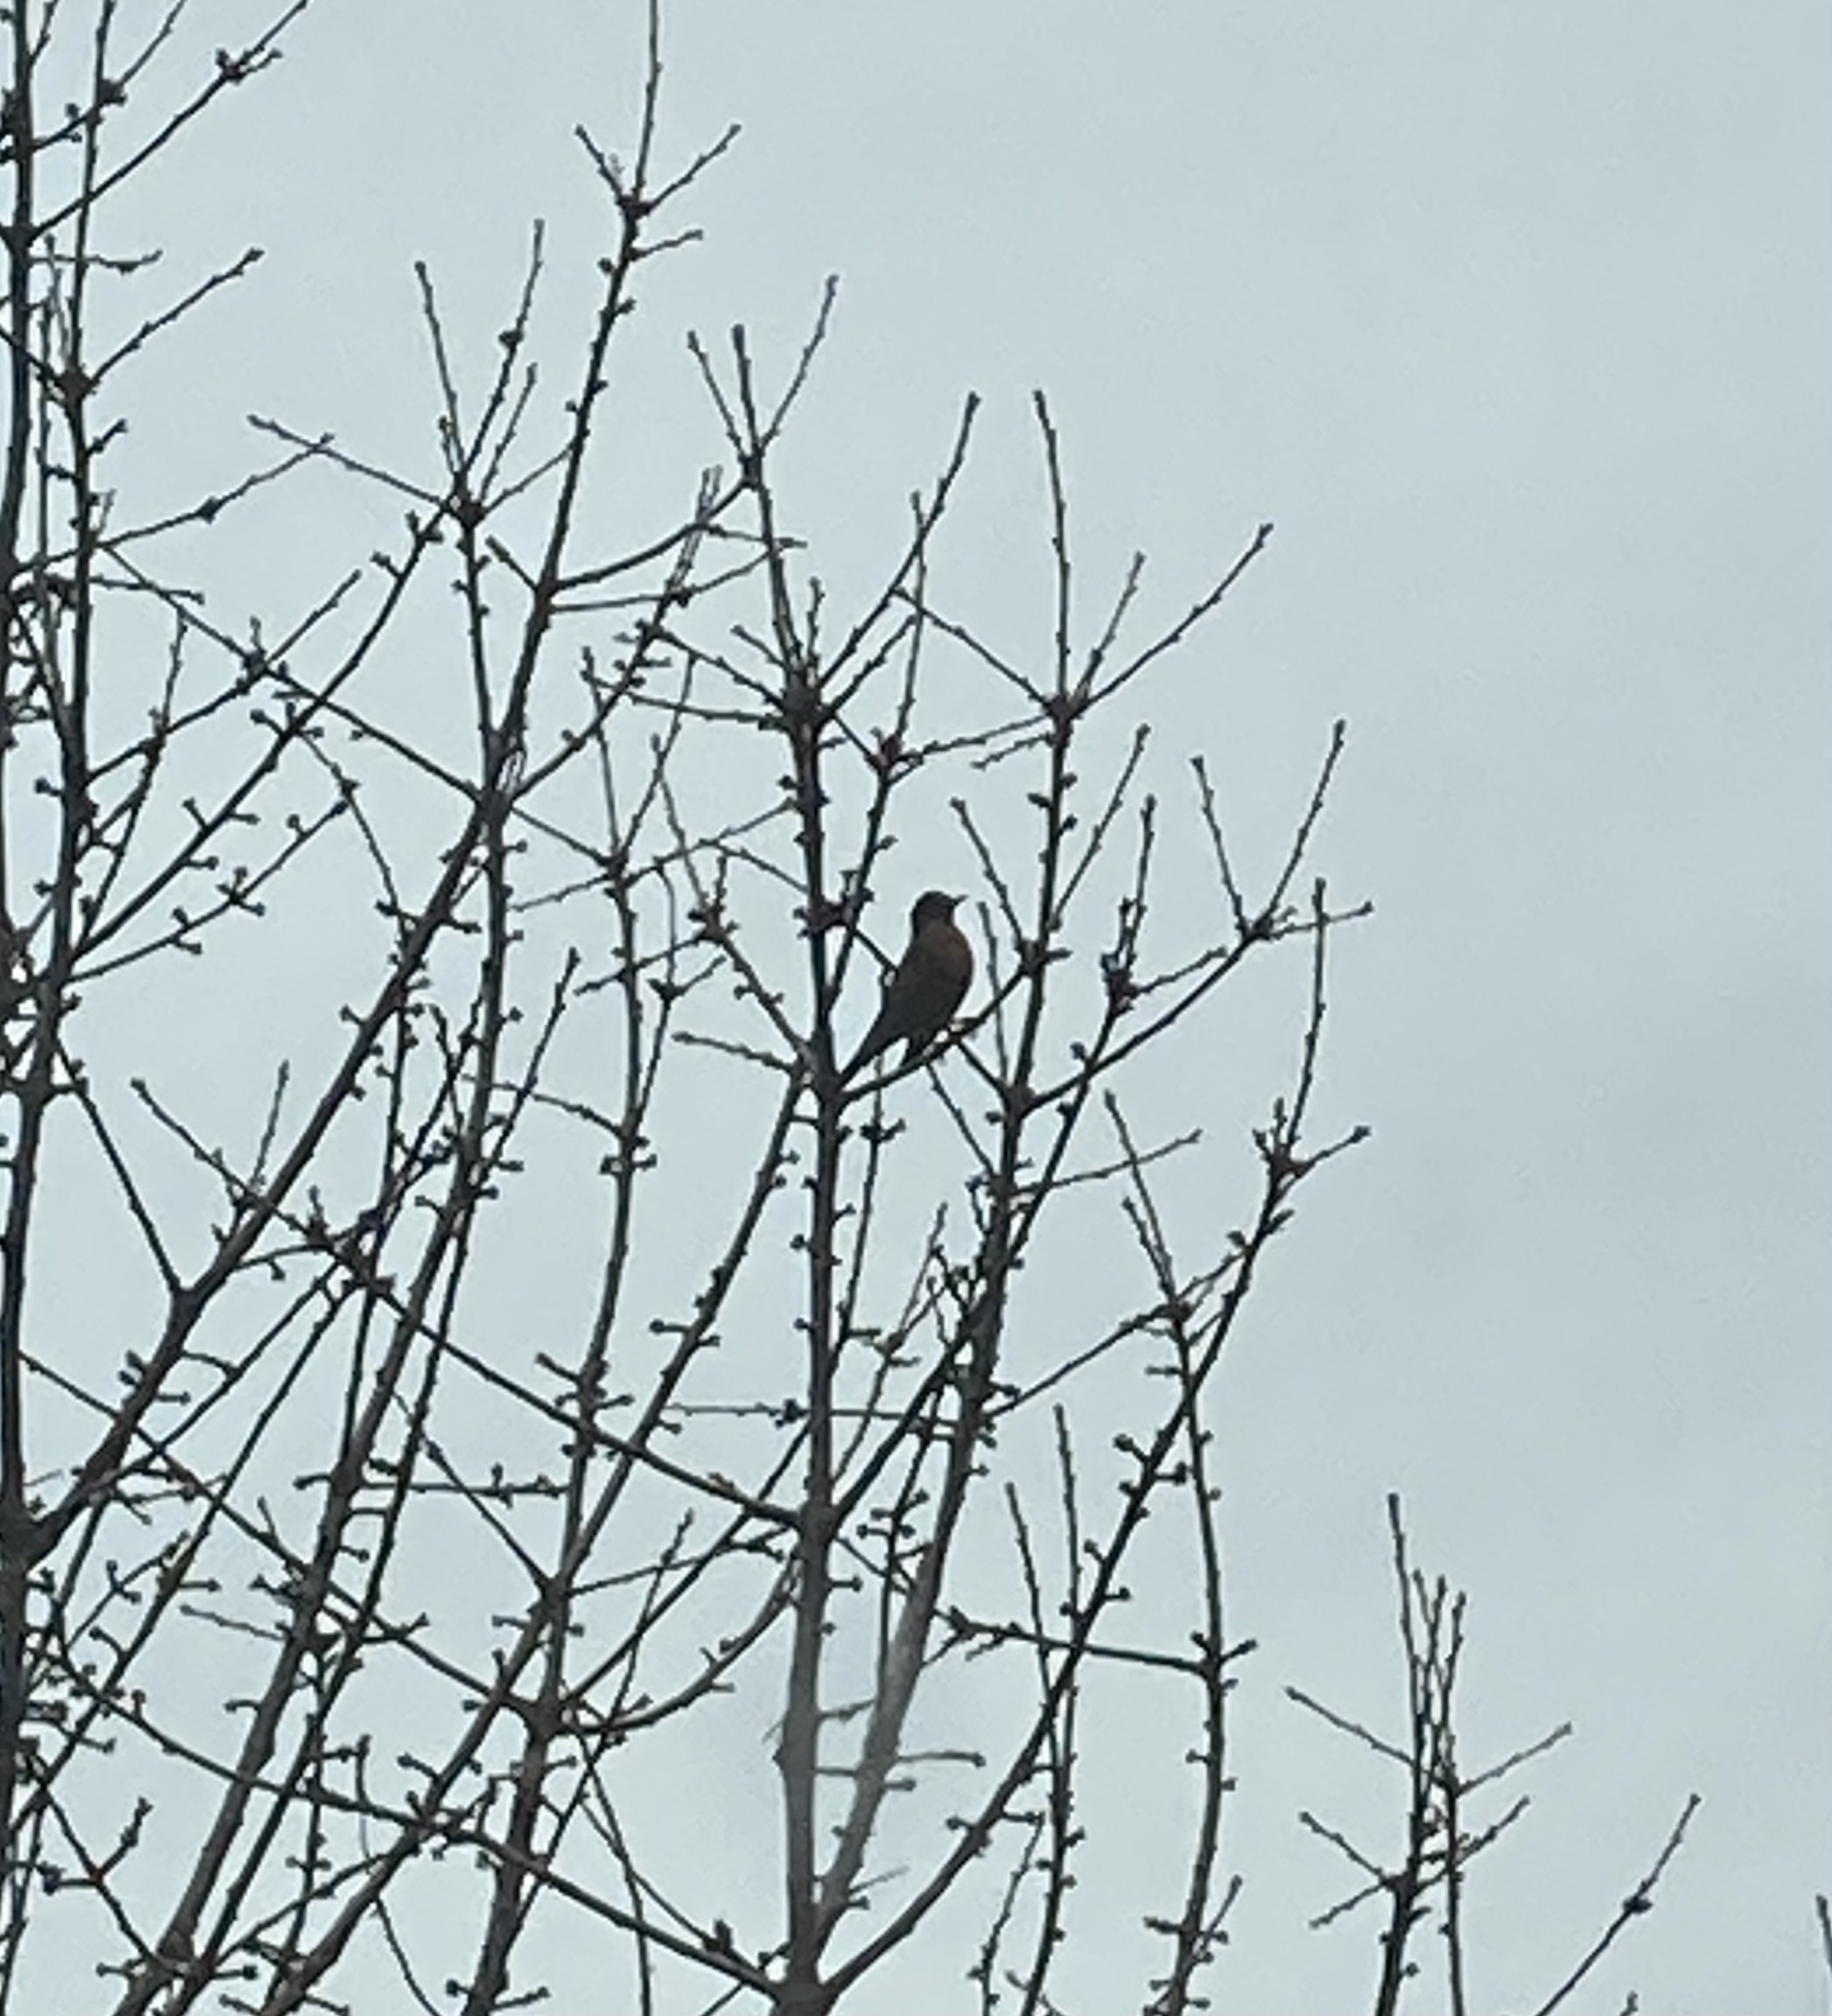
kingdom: Animalia
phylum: Chordata
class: Aves
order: Passeriformes
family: Turdidae
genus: Turdus
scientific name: Turdus migratorius
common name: American robin
